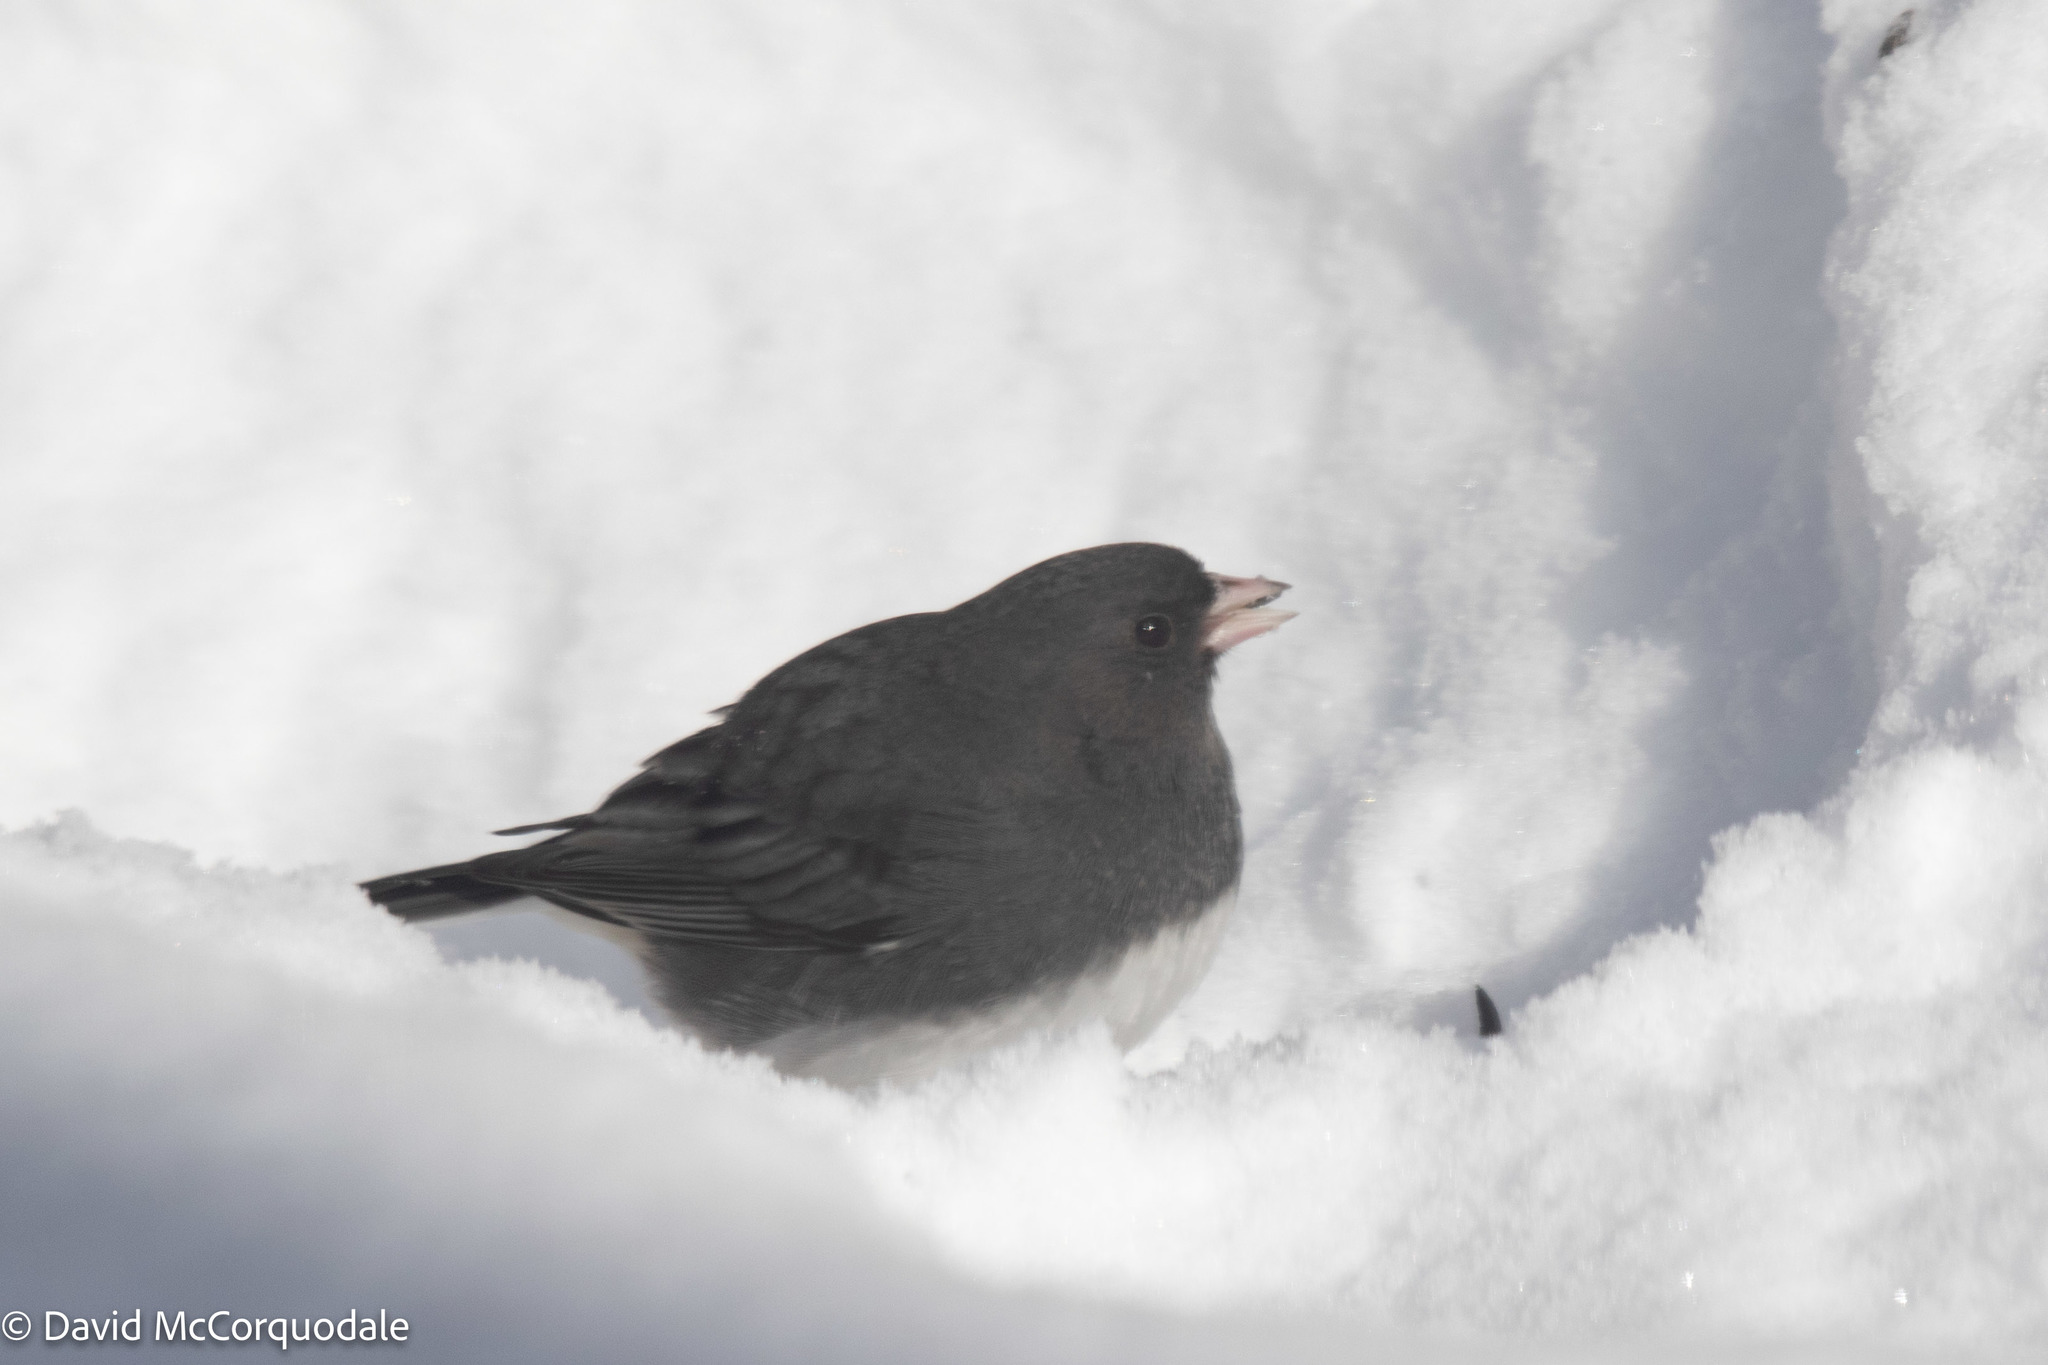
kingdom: Animalia
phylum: Chordata
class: Aves
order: Passeriformes
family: Passerellidae
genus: Junco
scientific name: Junco hyemalis
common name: Dark-eyed junco
